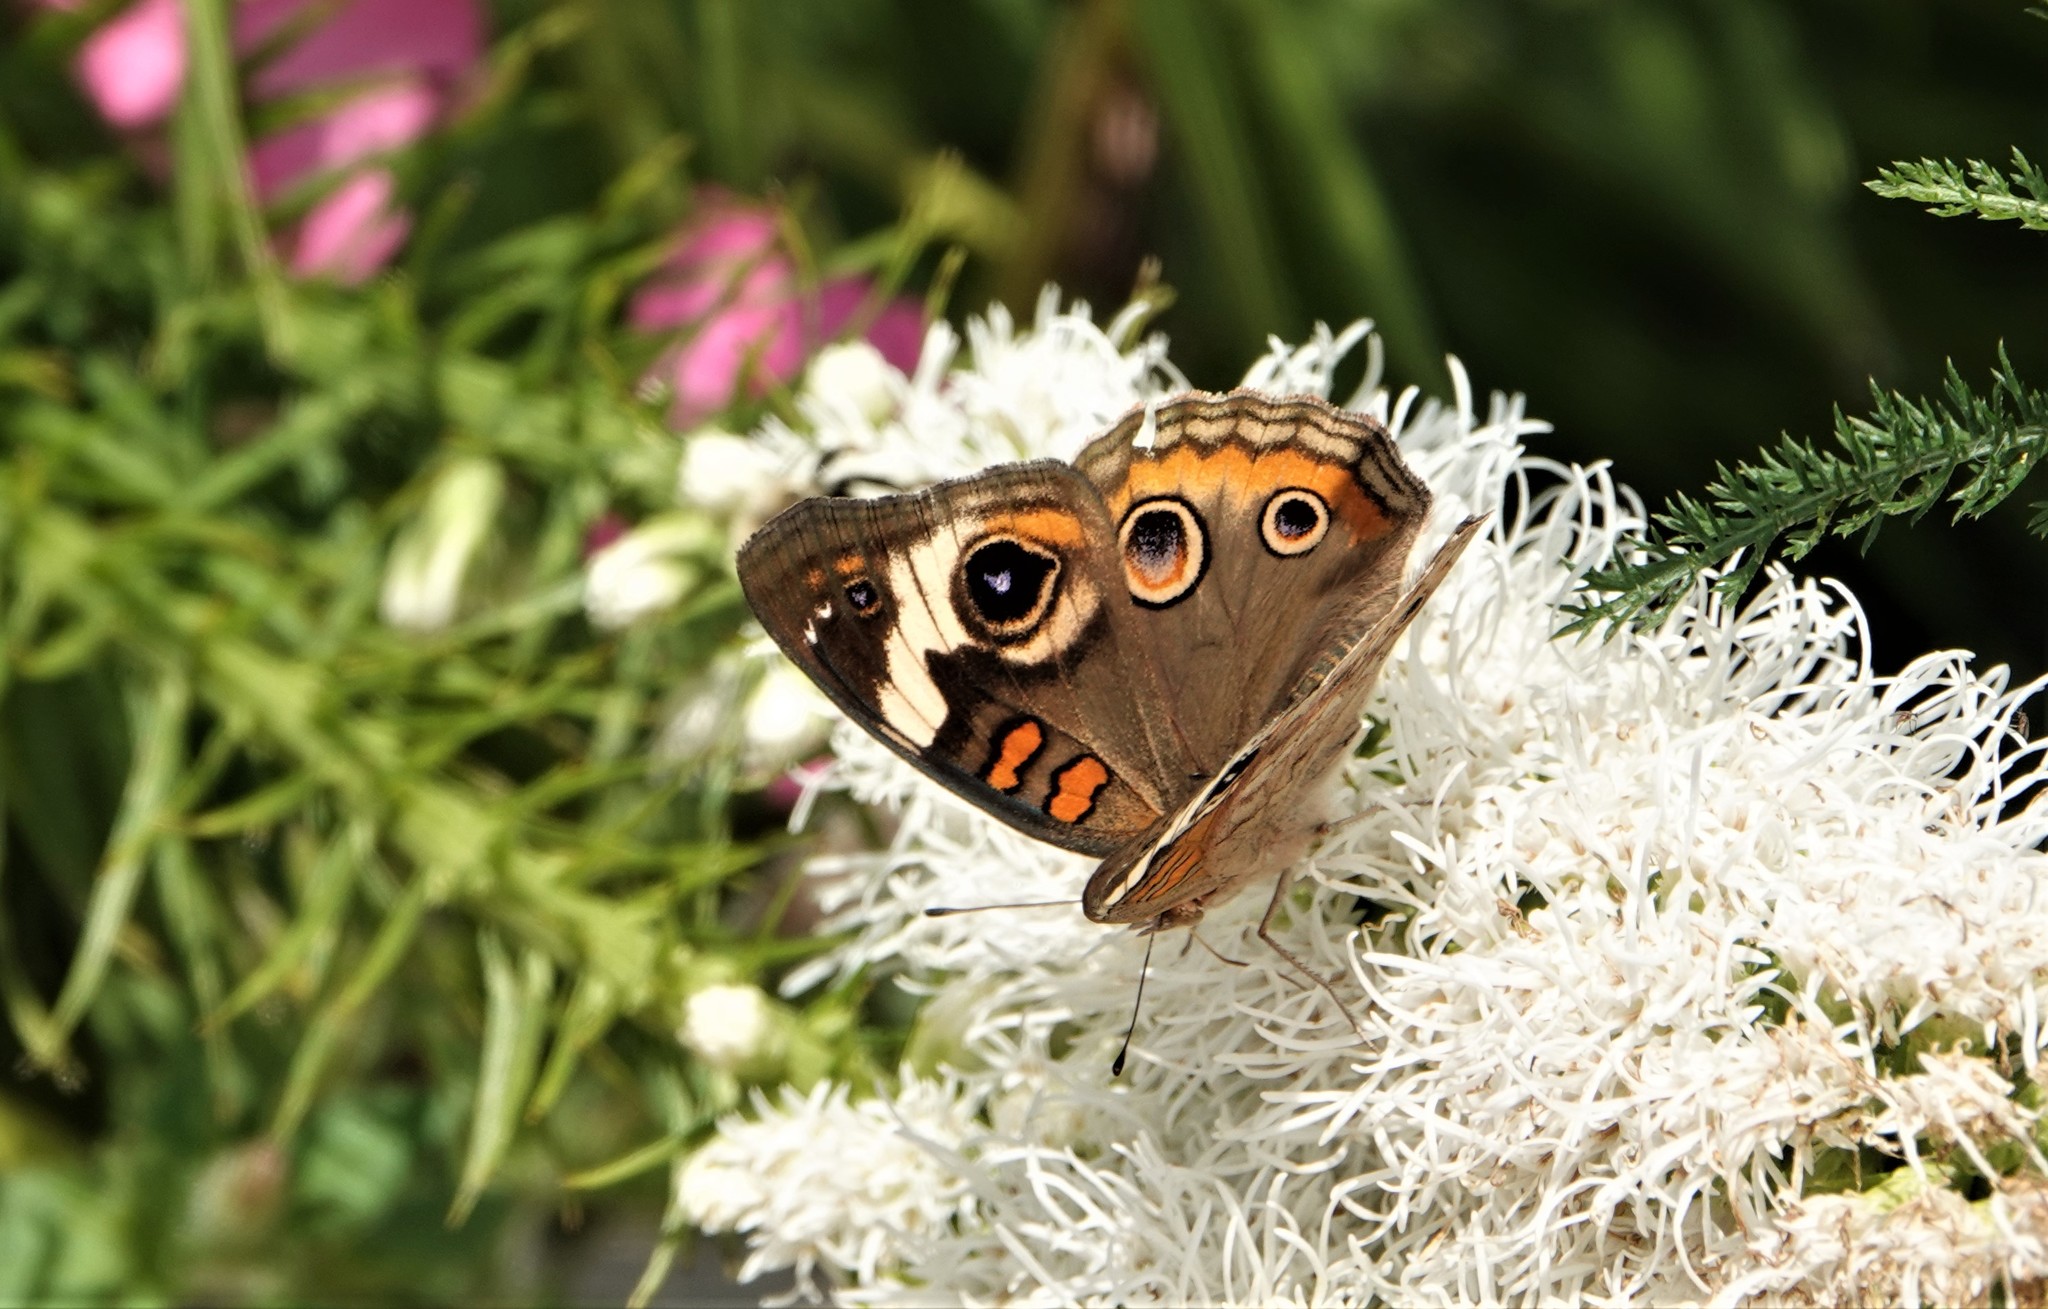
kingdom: Animalia
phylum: Arthropoda
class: Insecta
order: Lepidoptera
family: Nymphalidae
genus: Junonia
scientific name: Junonia coenia
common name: Common buckeye
